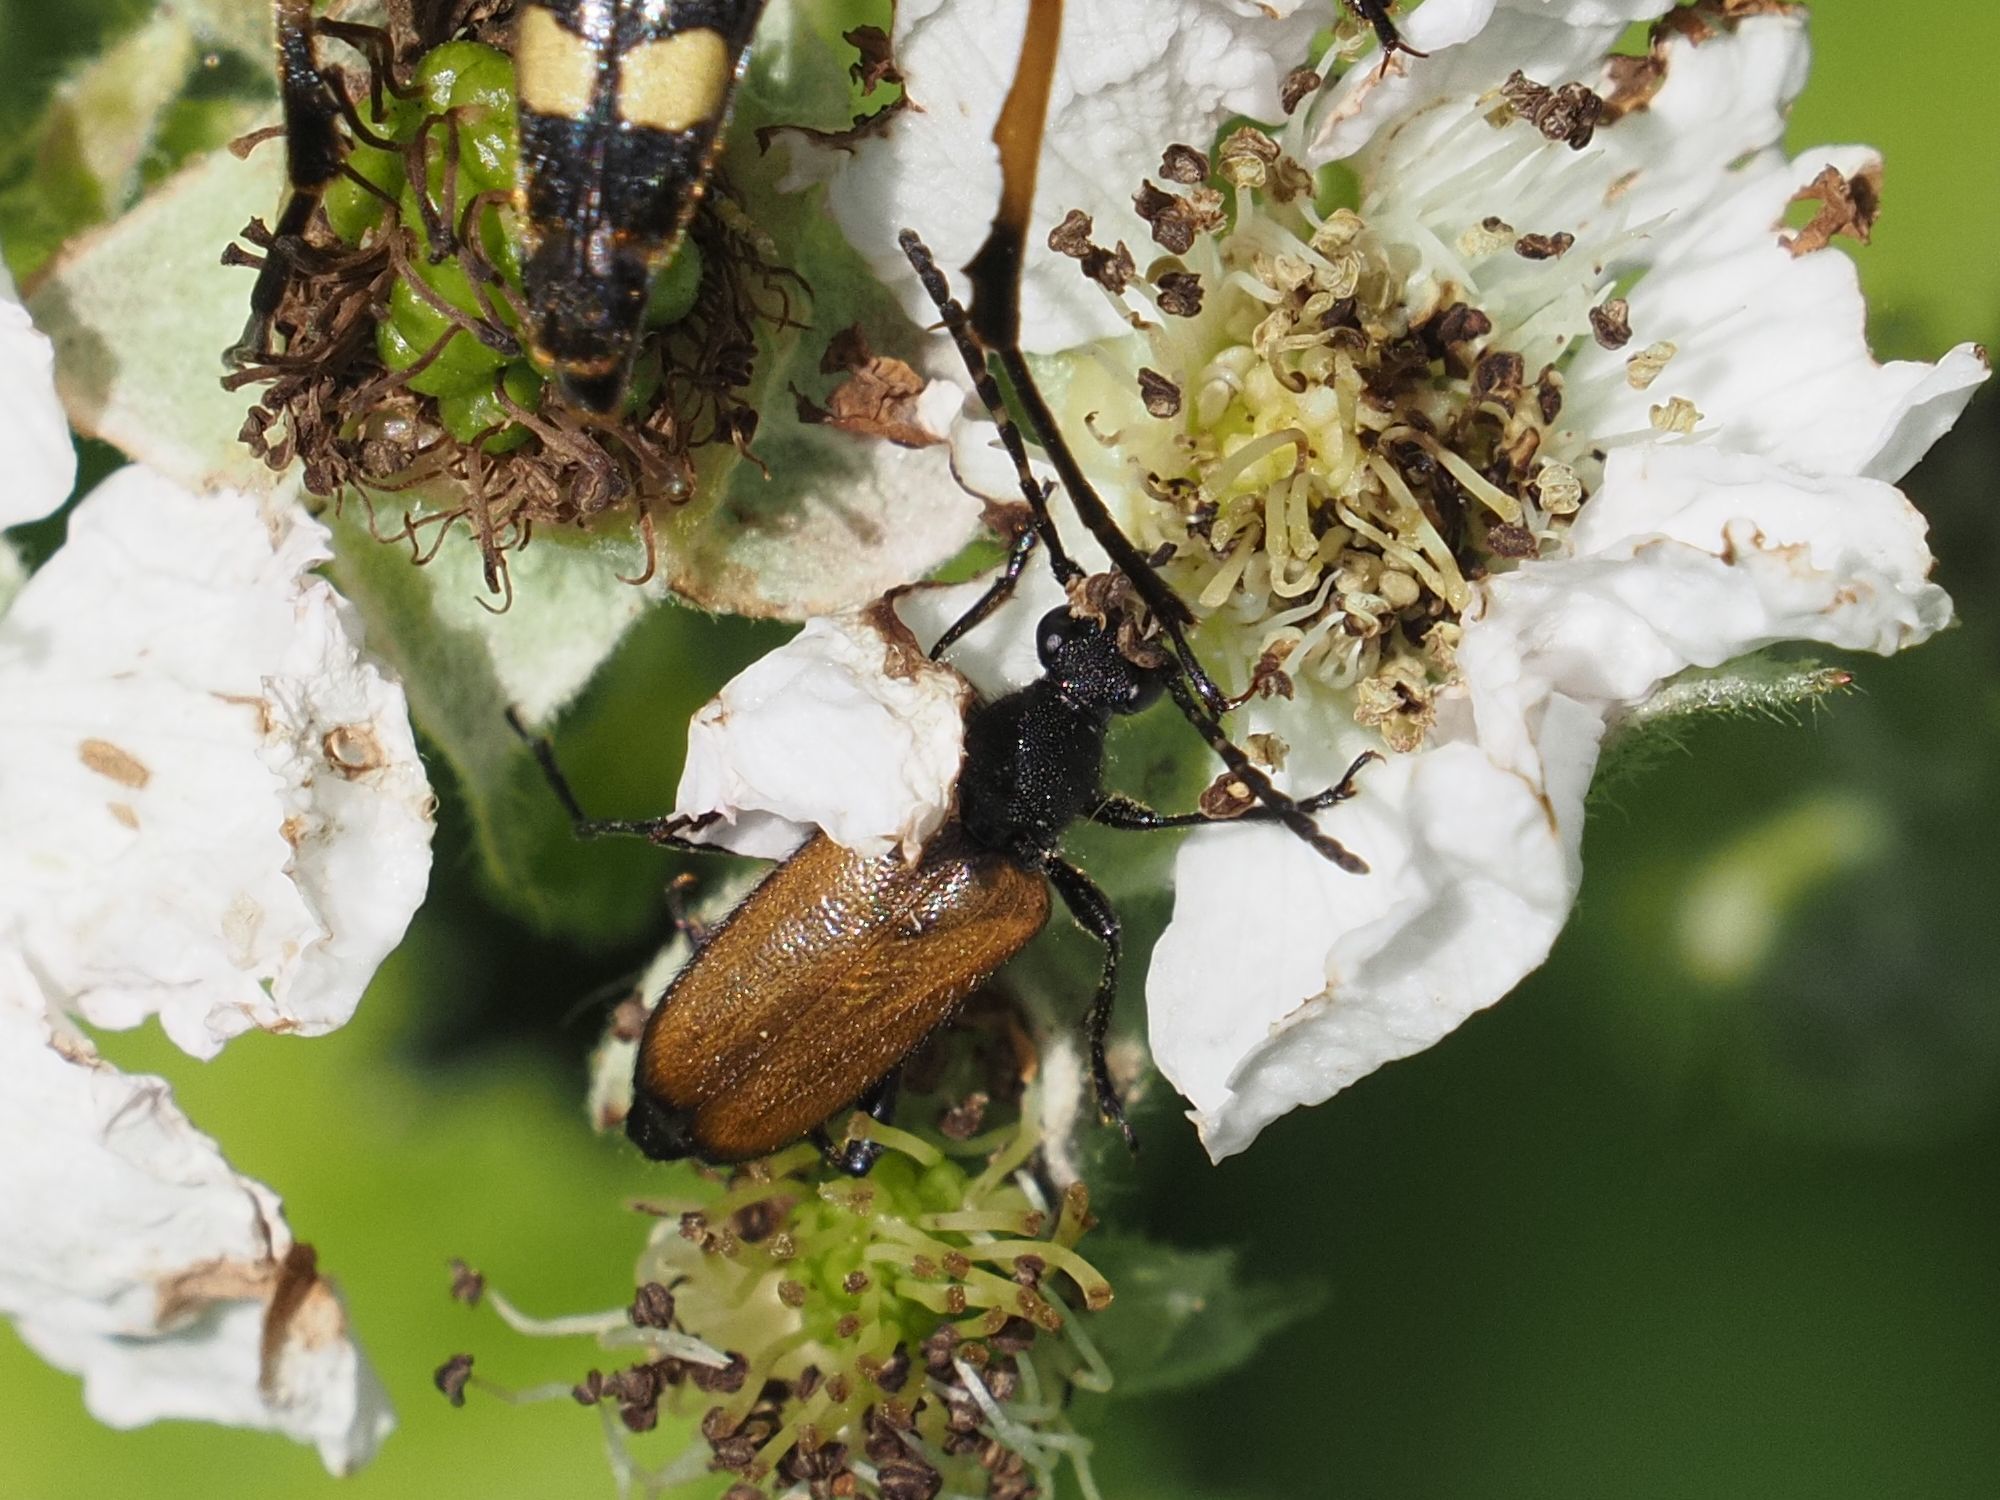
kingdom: Animalia
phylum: Arthropoda
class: Insecta
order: Coleoptera
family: Cerambycidae
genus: Paracorymbia
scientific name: Paracorymbia maculicornis
